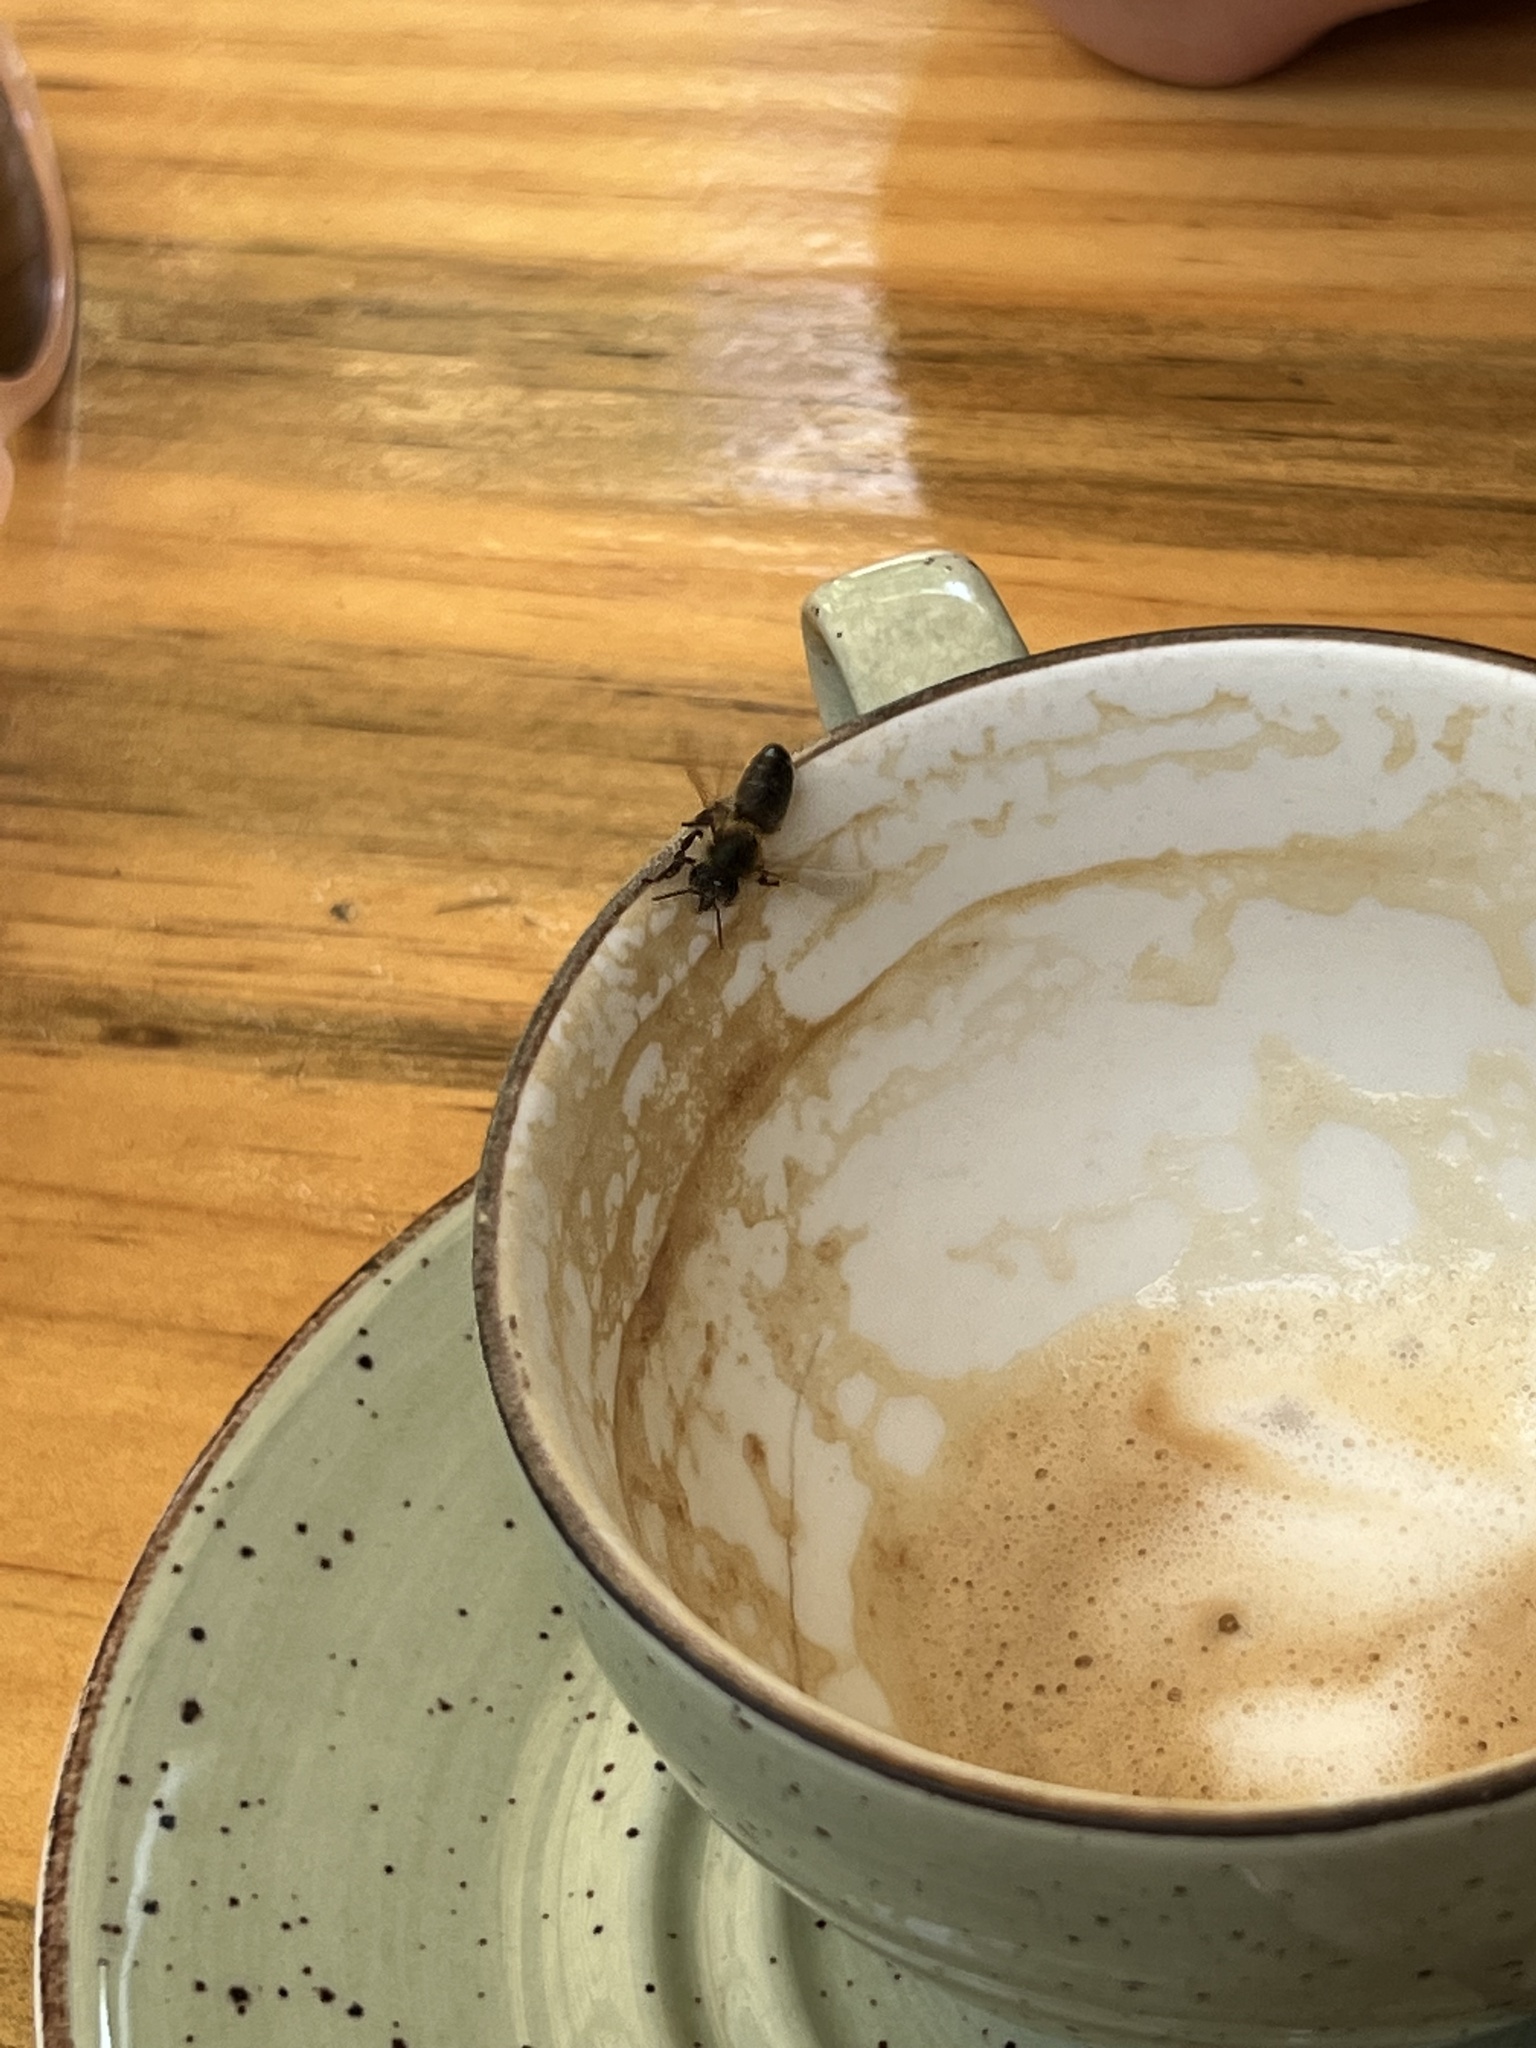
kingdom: Animalia
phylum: Arthropoda
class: Insecta
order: Hymenoptera
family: Apidae
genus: Apis
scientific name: Apis mellifera
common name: Honey bee
